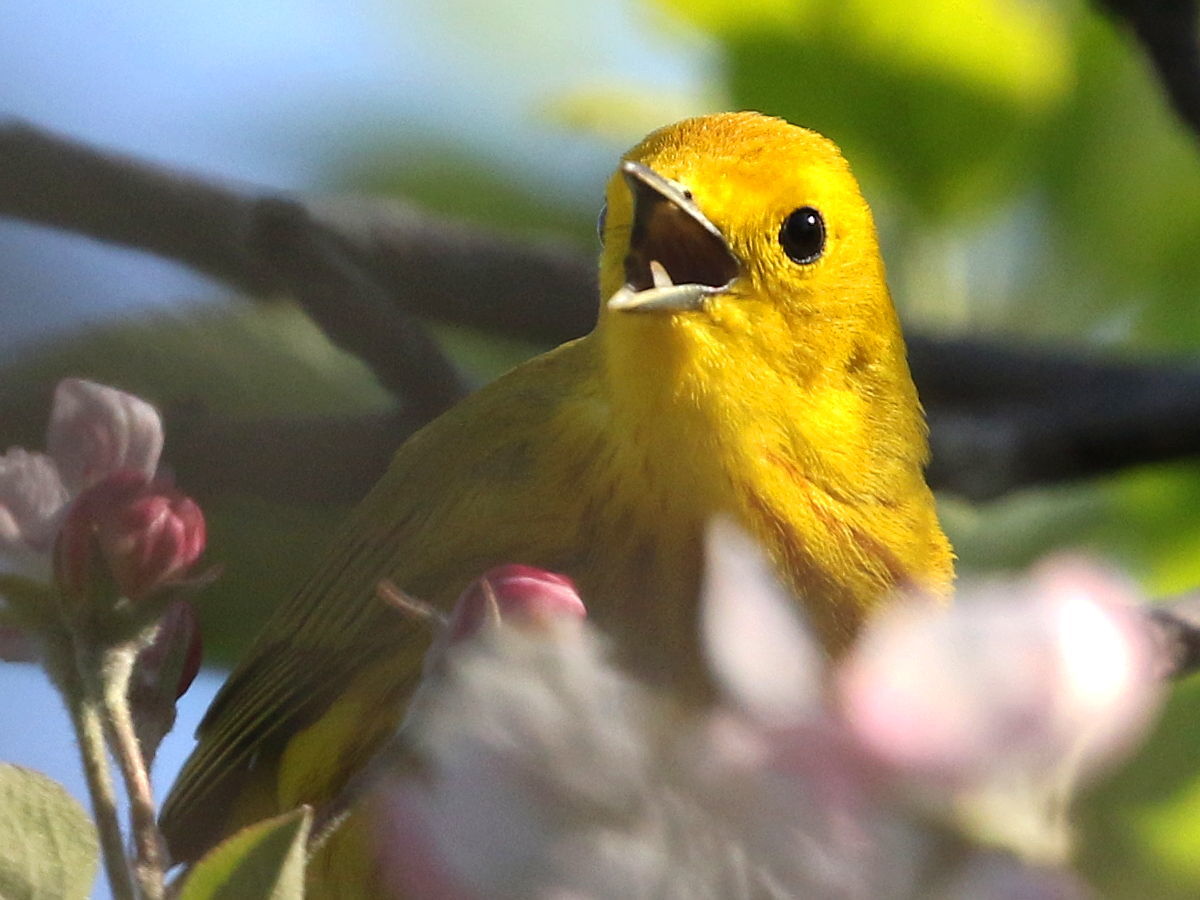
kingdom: Animalia
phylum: Chordata
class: Aves
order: Passeriformes
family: Parulidae
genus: Setophaga
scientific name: Setophaga petechia
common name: Yellow warbler
